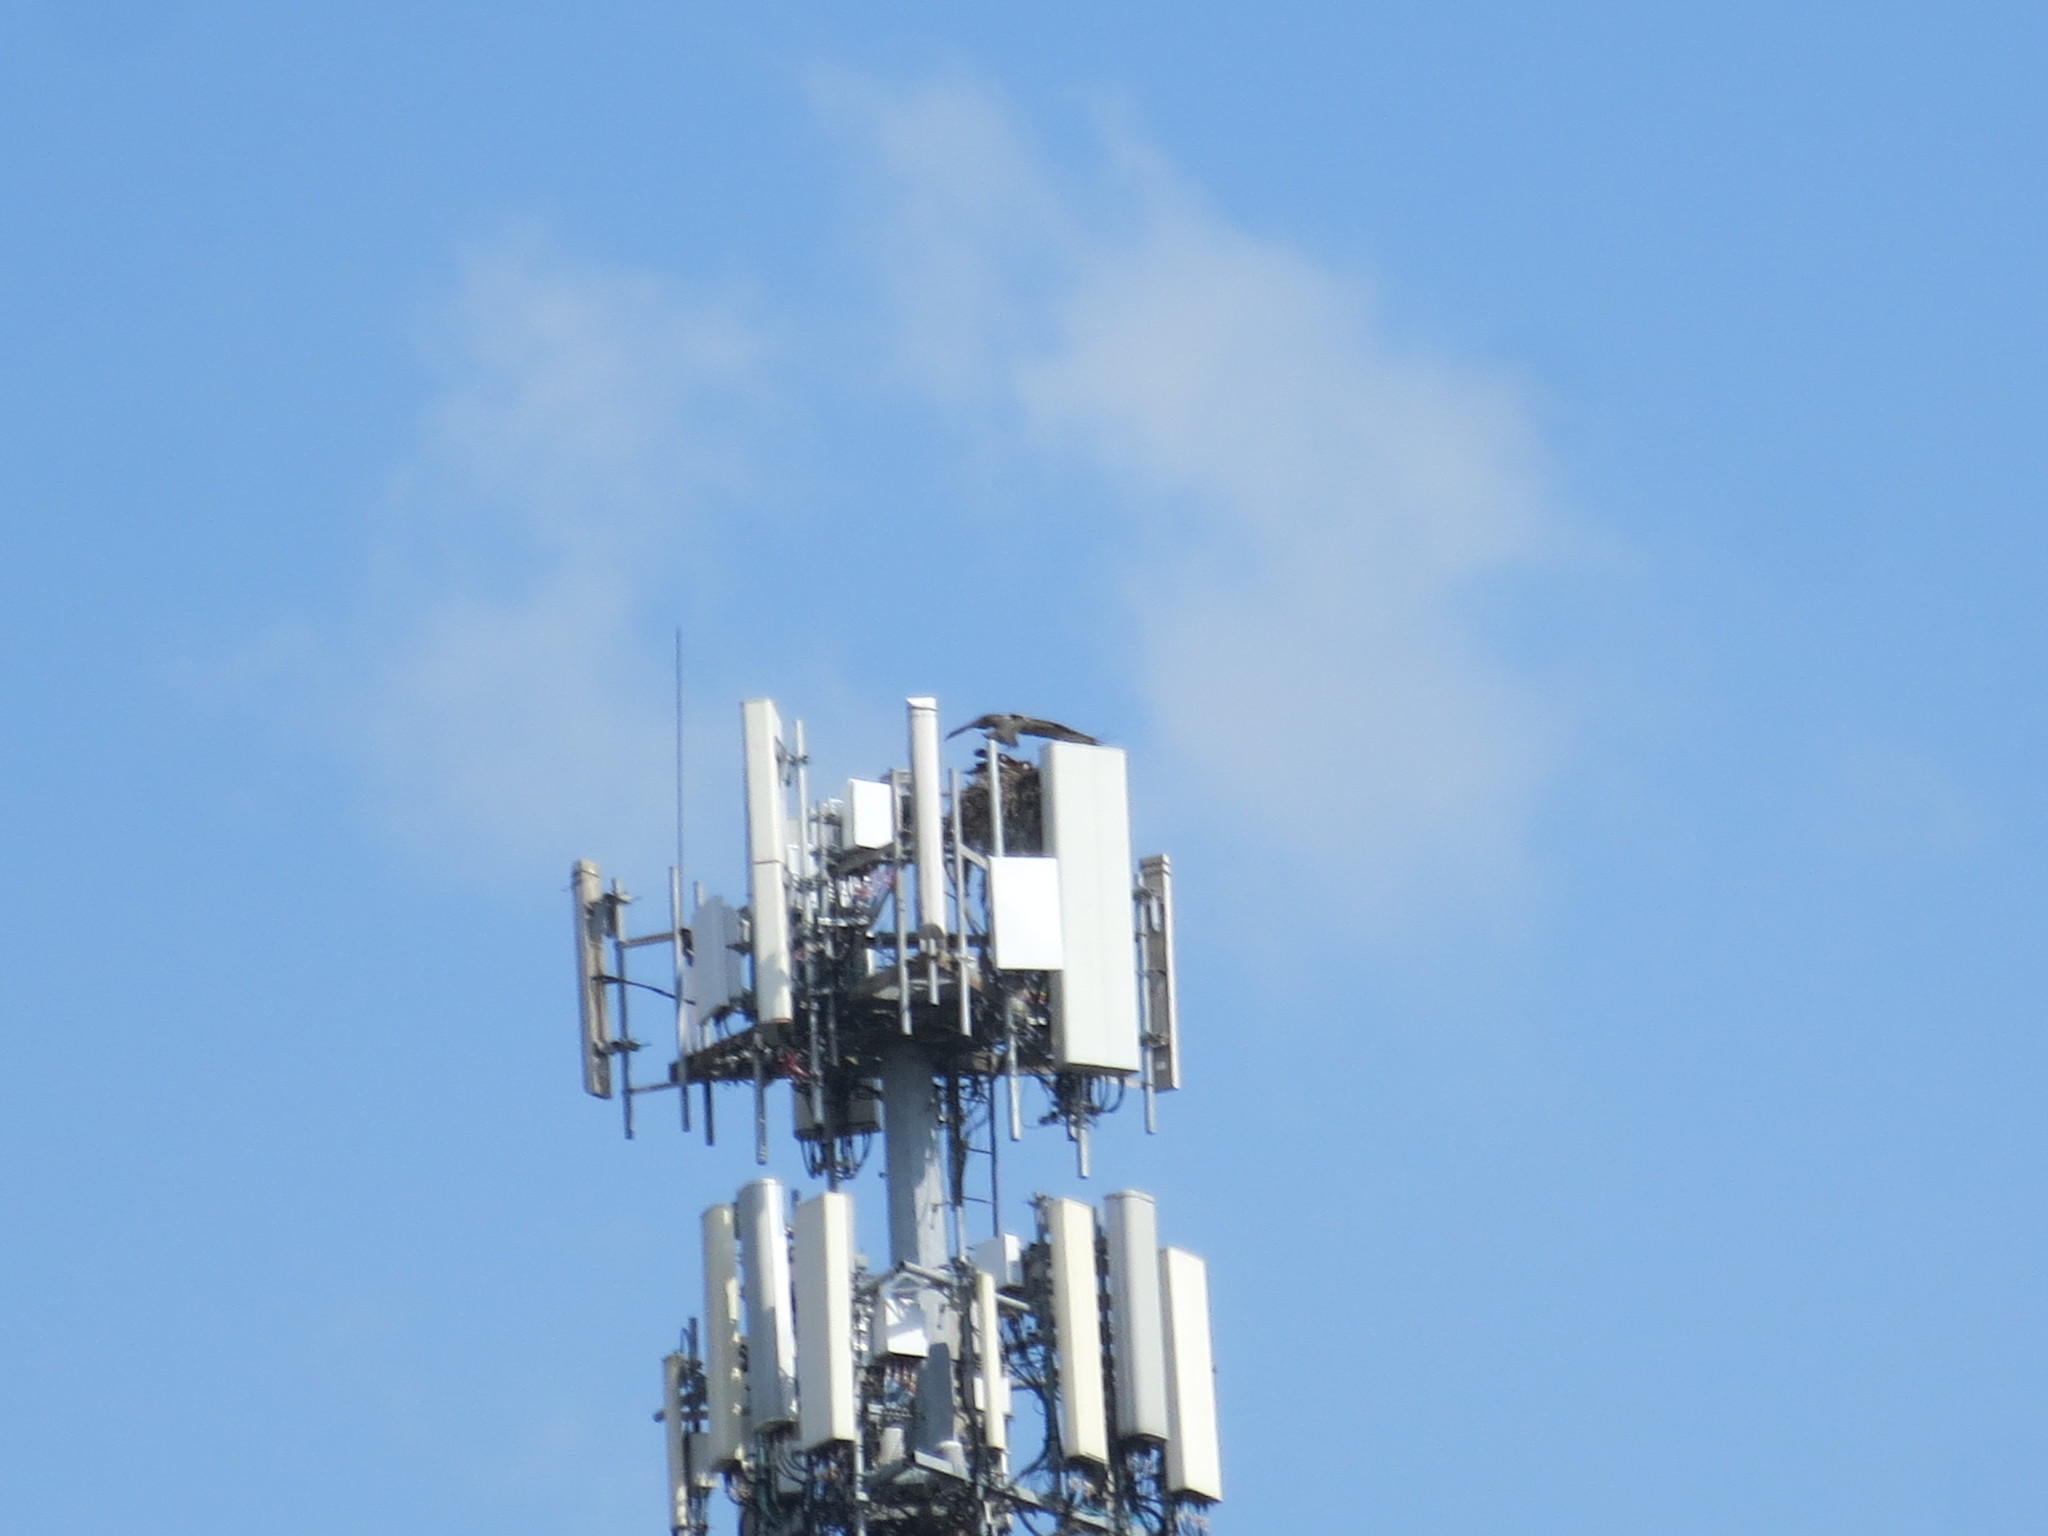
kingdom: Animalia
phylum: Chordata
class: Aves
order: Accipitriformes
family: Pandionidae
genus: Pandion
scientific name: Pandion haliaetus
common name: Osprey
